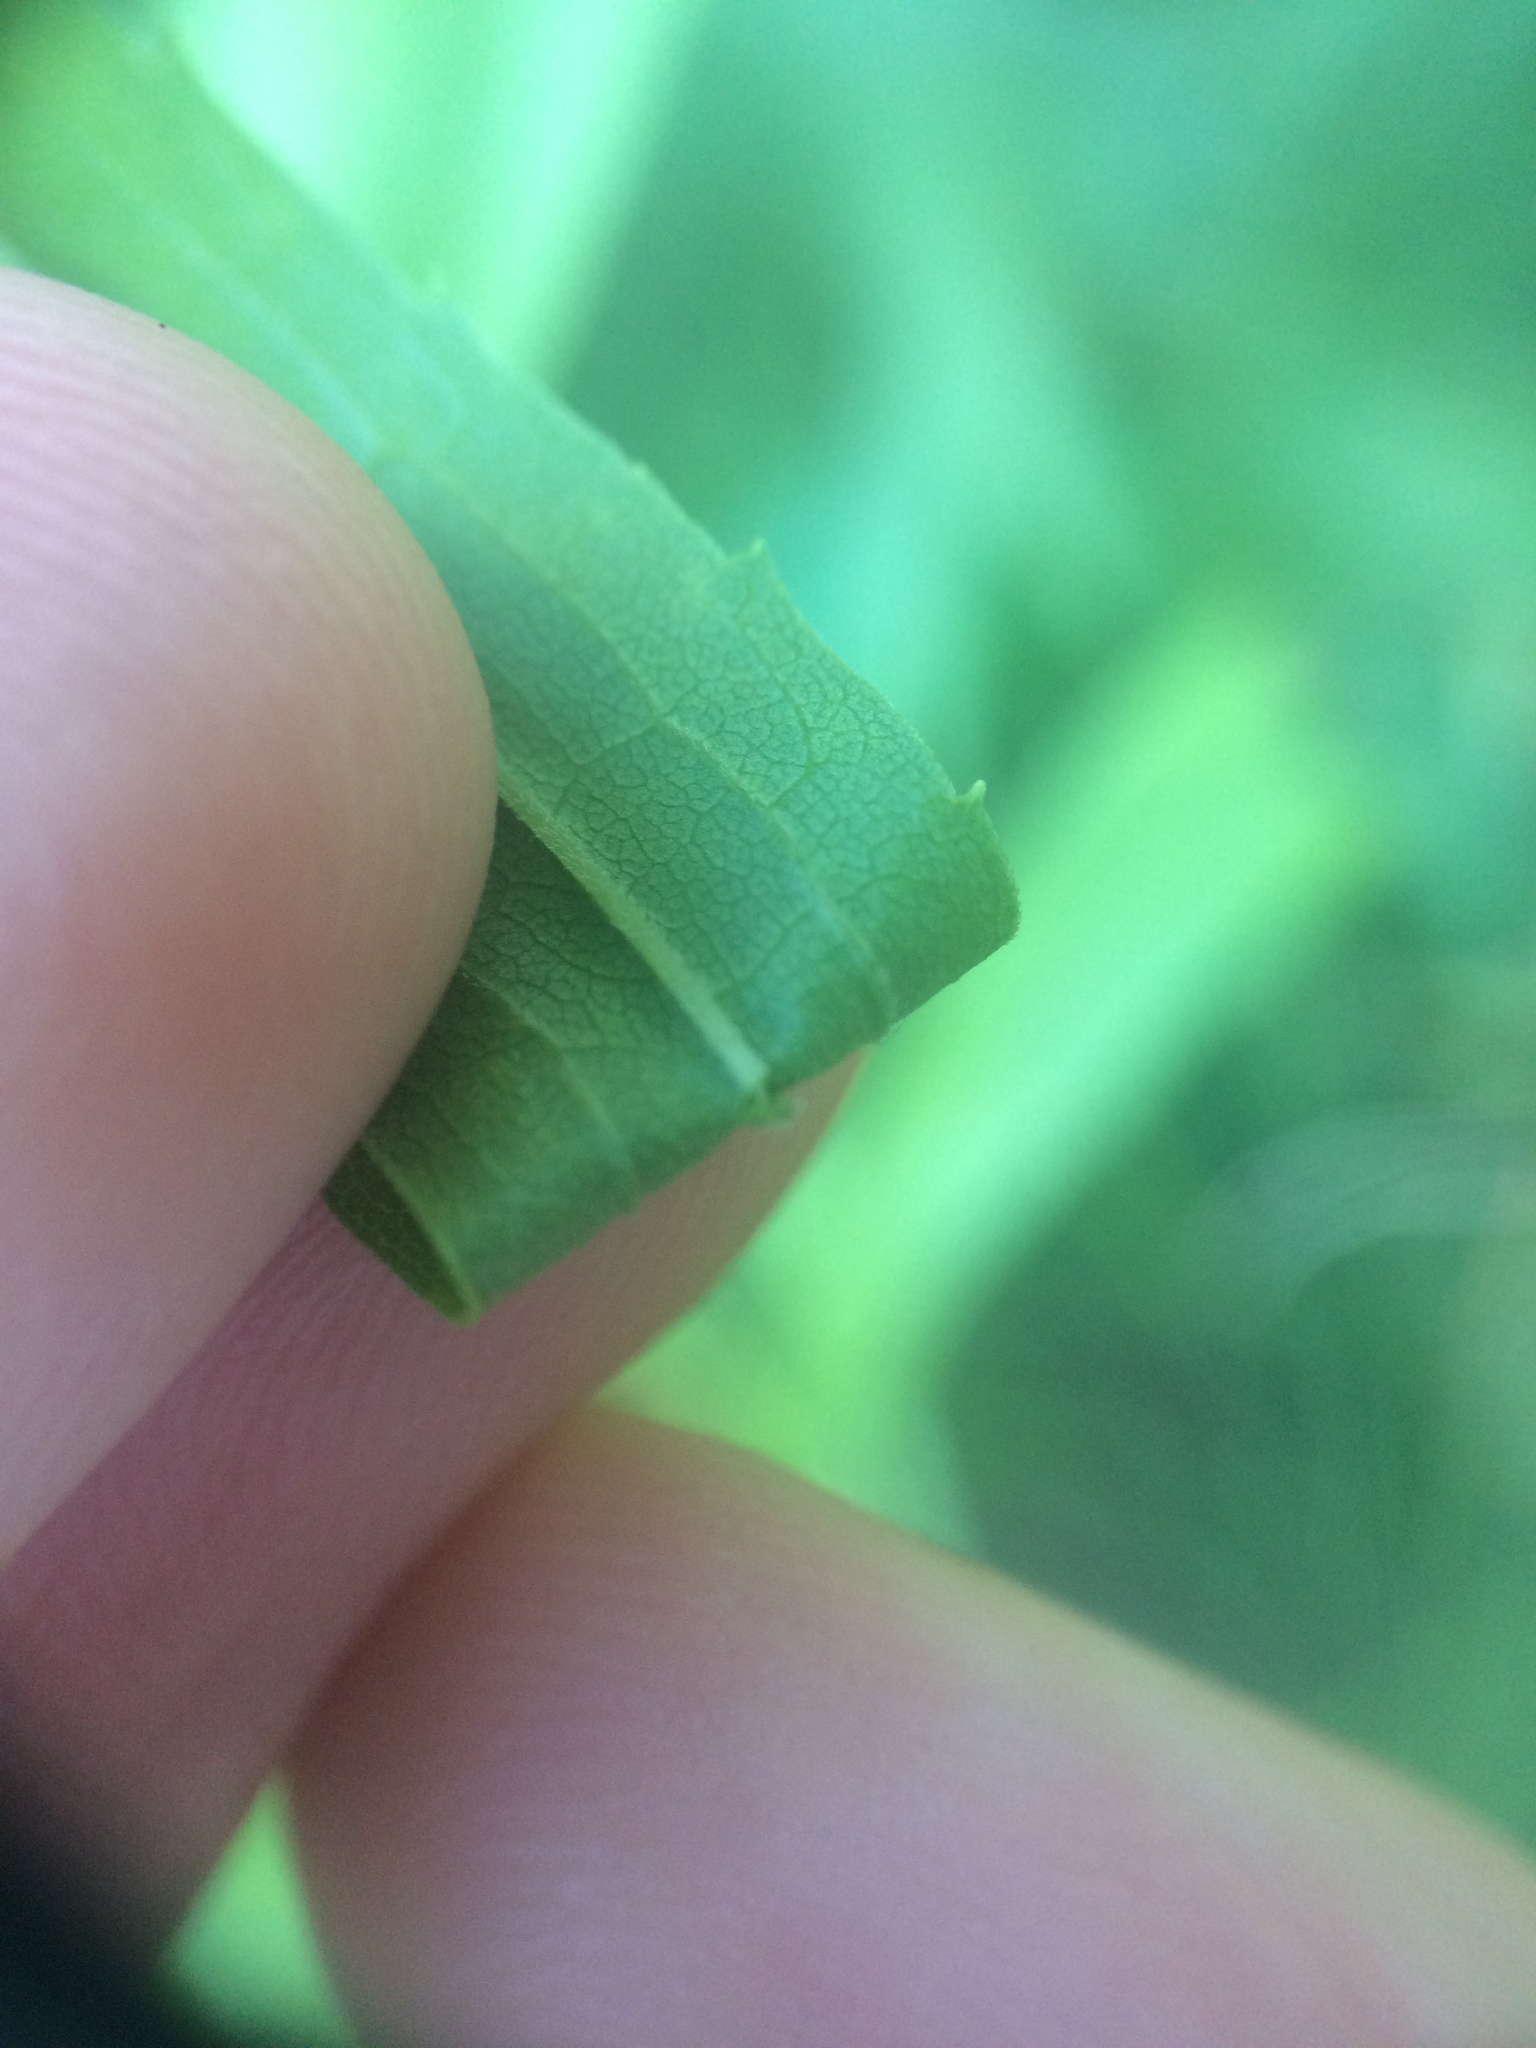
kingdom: Plantae
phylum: Tracheophyta
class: Magnoliopsida
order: Asterales
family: Asteraceae
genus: Solidago
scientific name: Solidago canadensis
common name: Canada goldenrod
